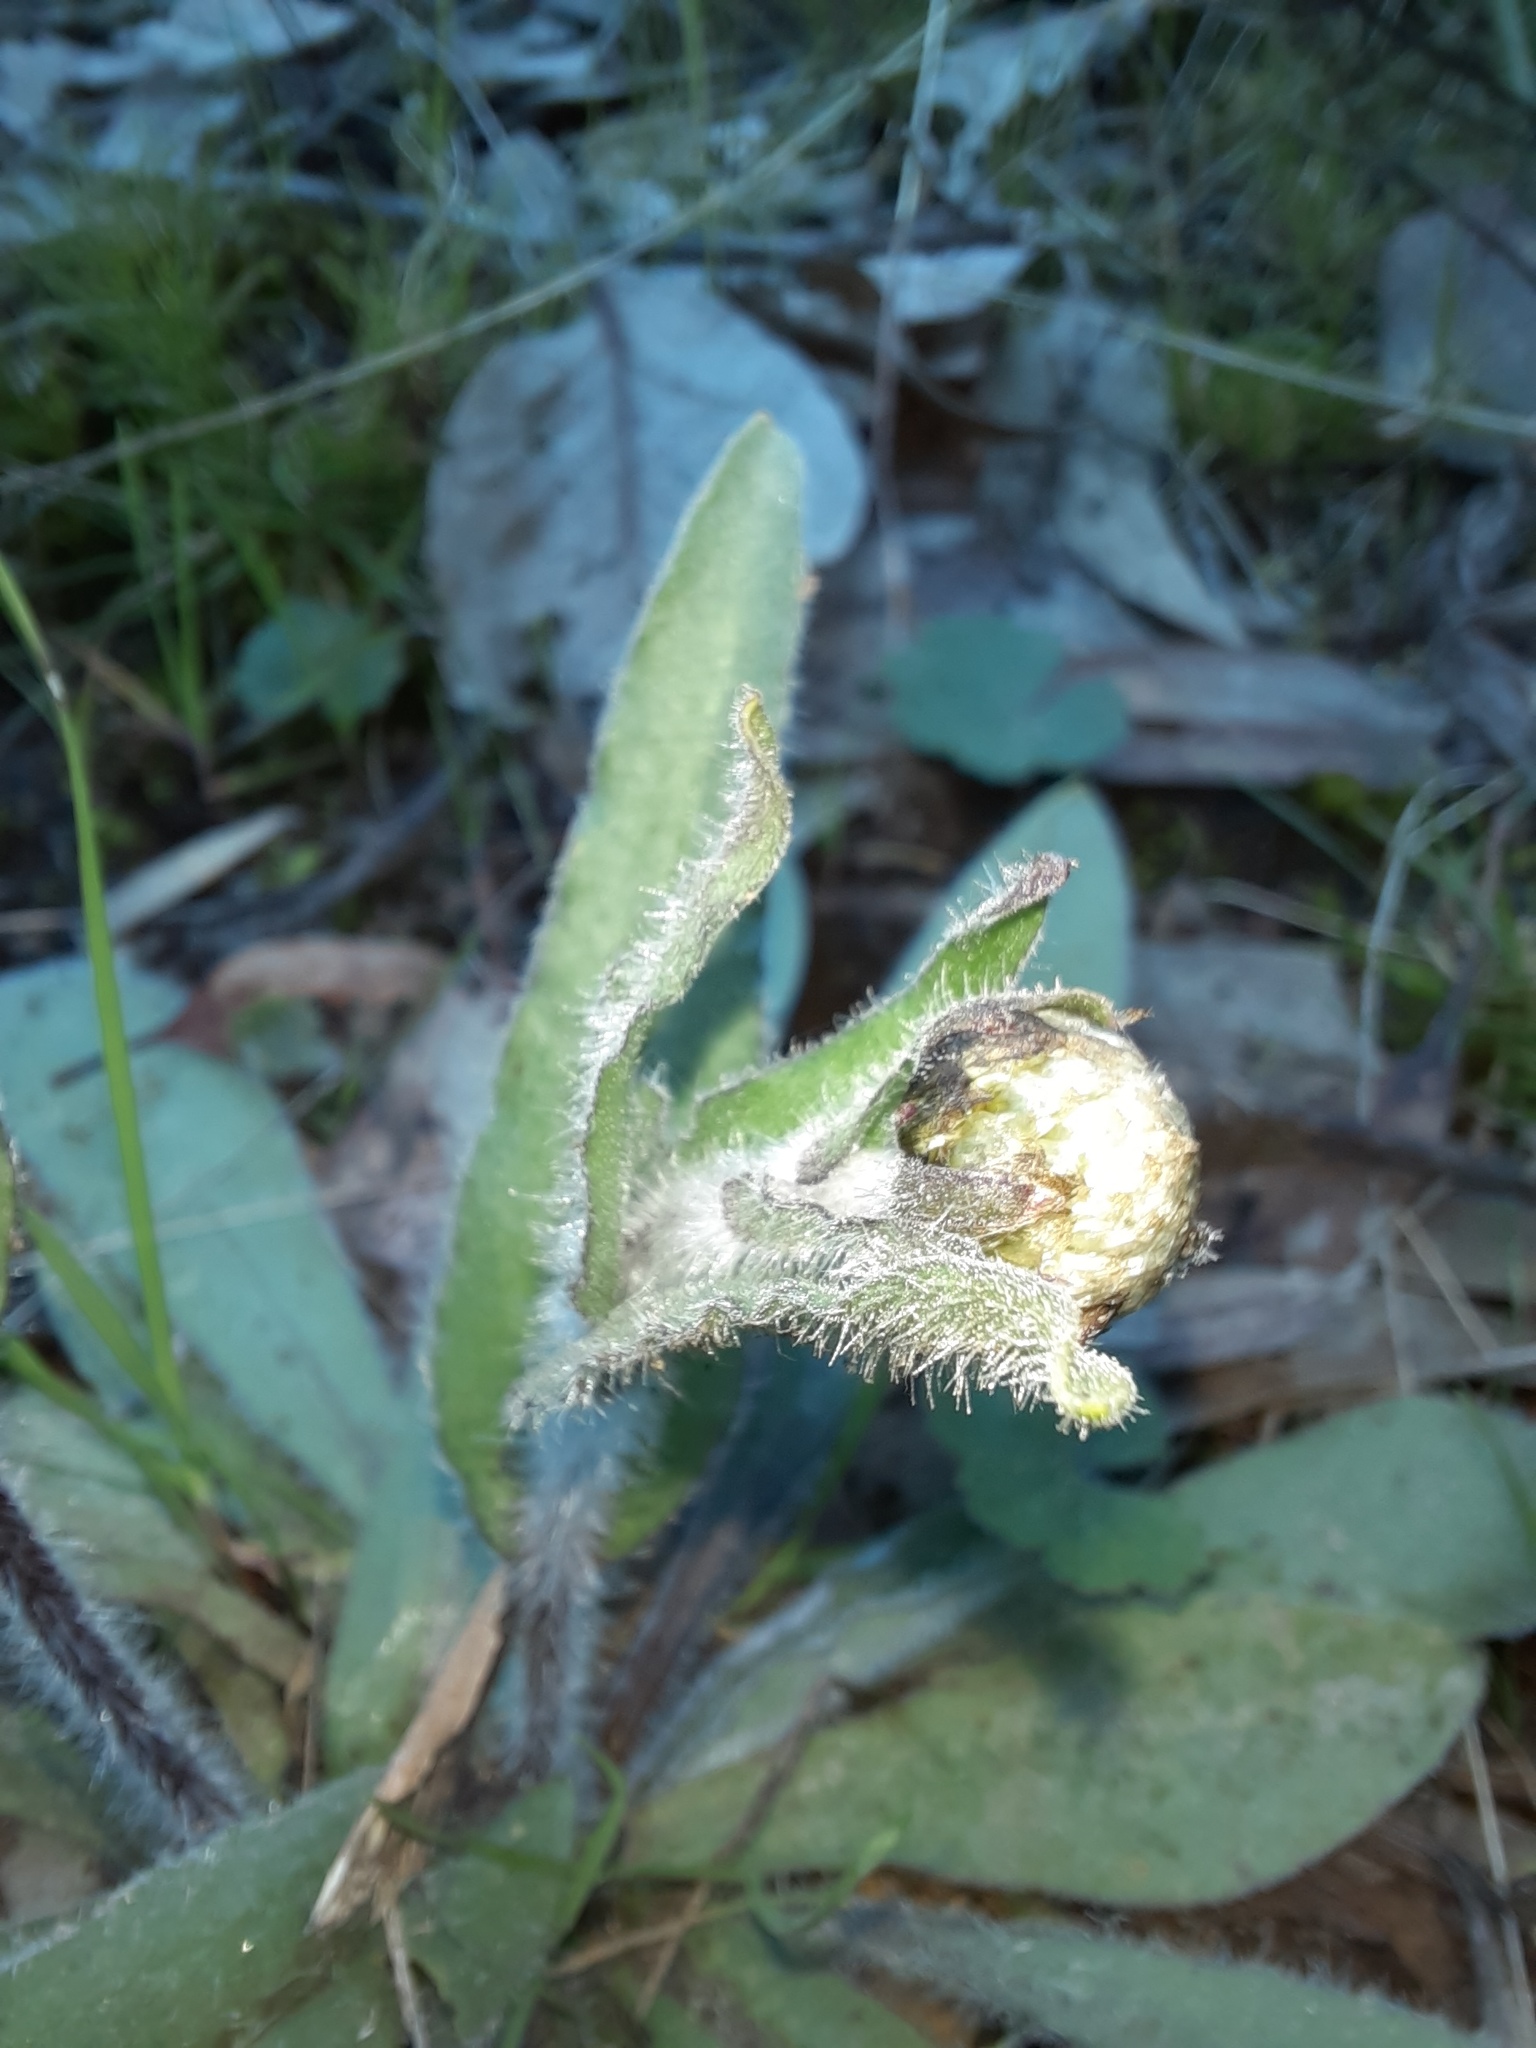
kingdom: Plantae
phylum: Tracheophyta
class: Magnoliopsida
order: Asterales
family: Asteraceae
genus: Craspedia
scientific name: Craspedia variabilis
